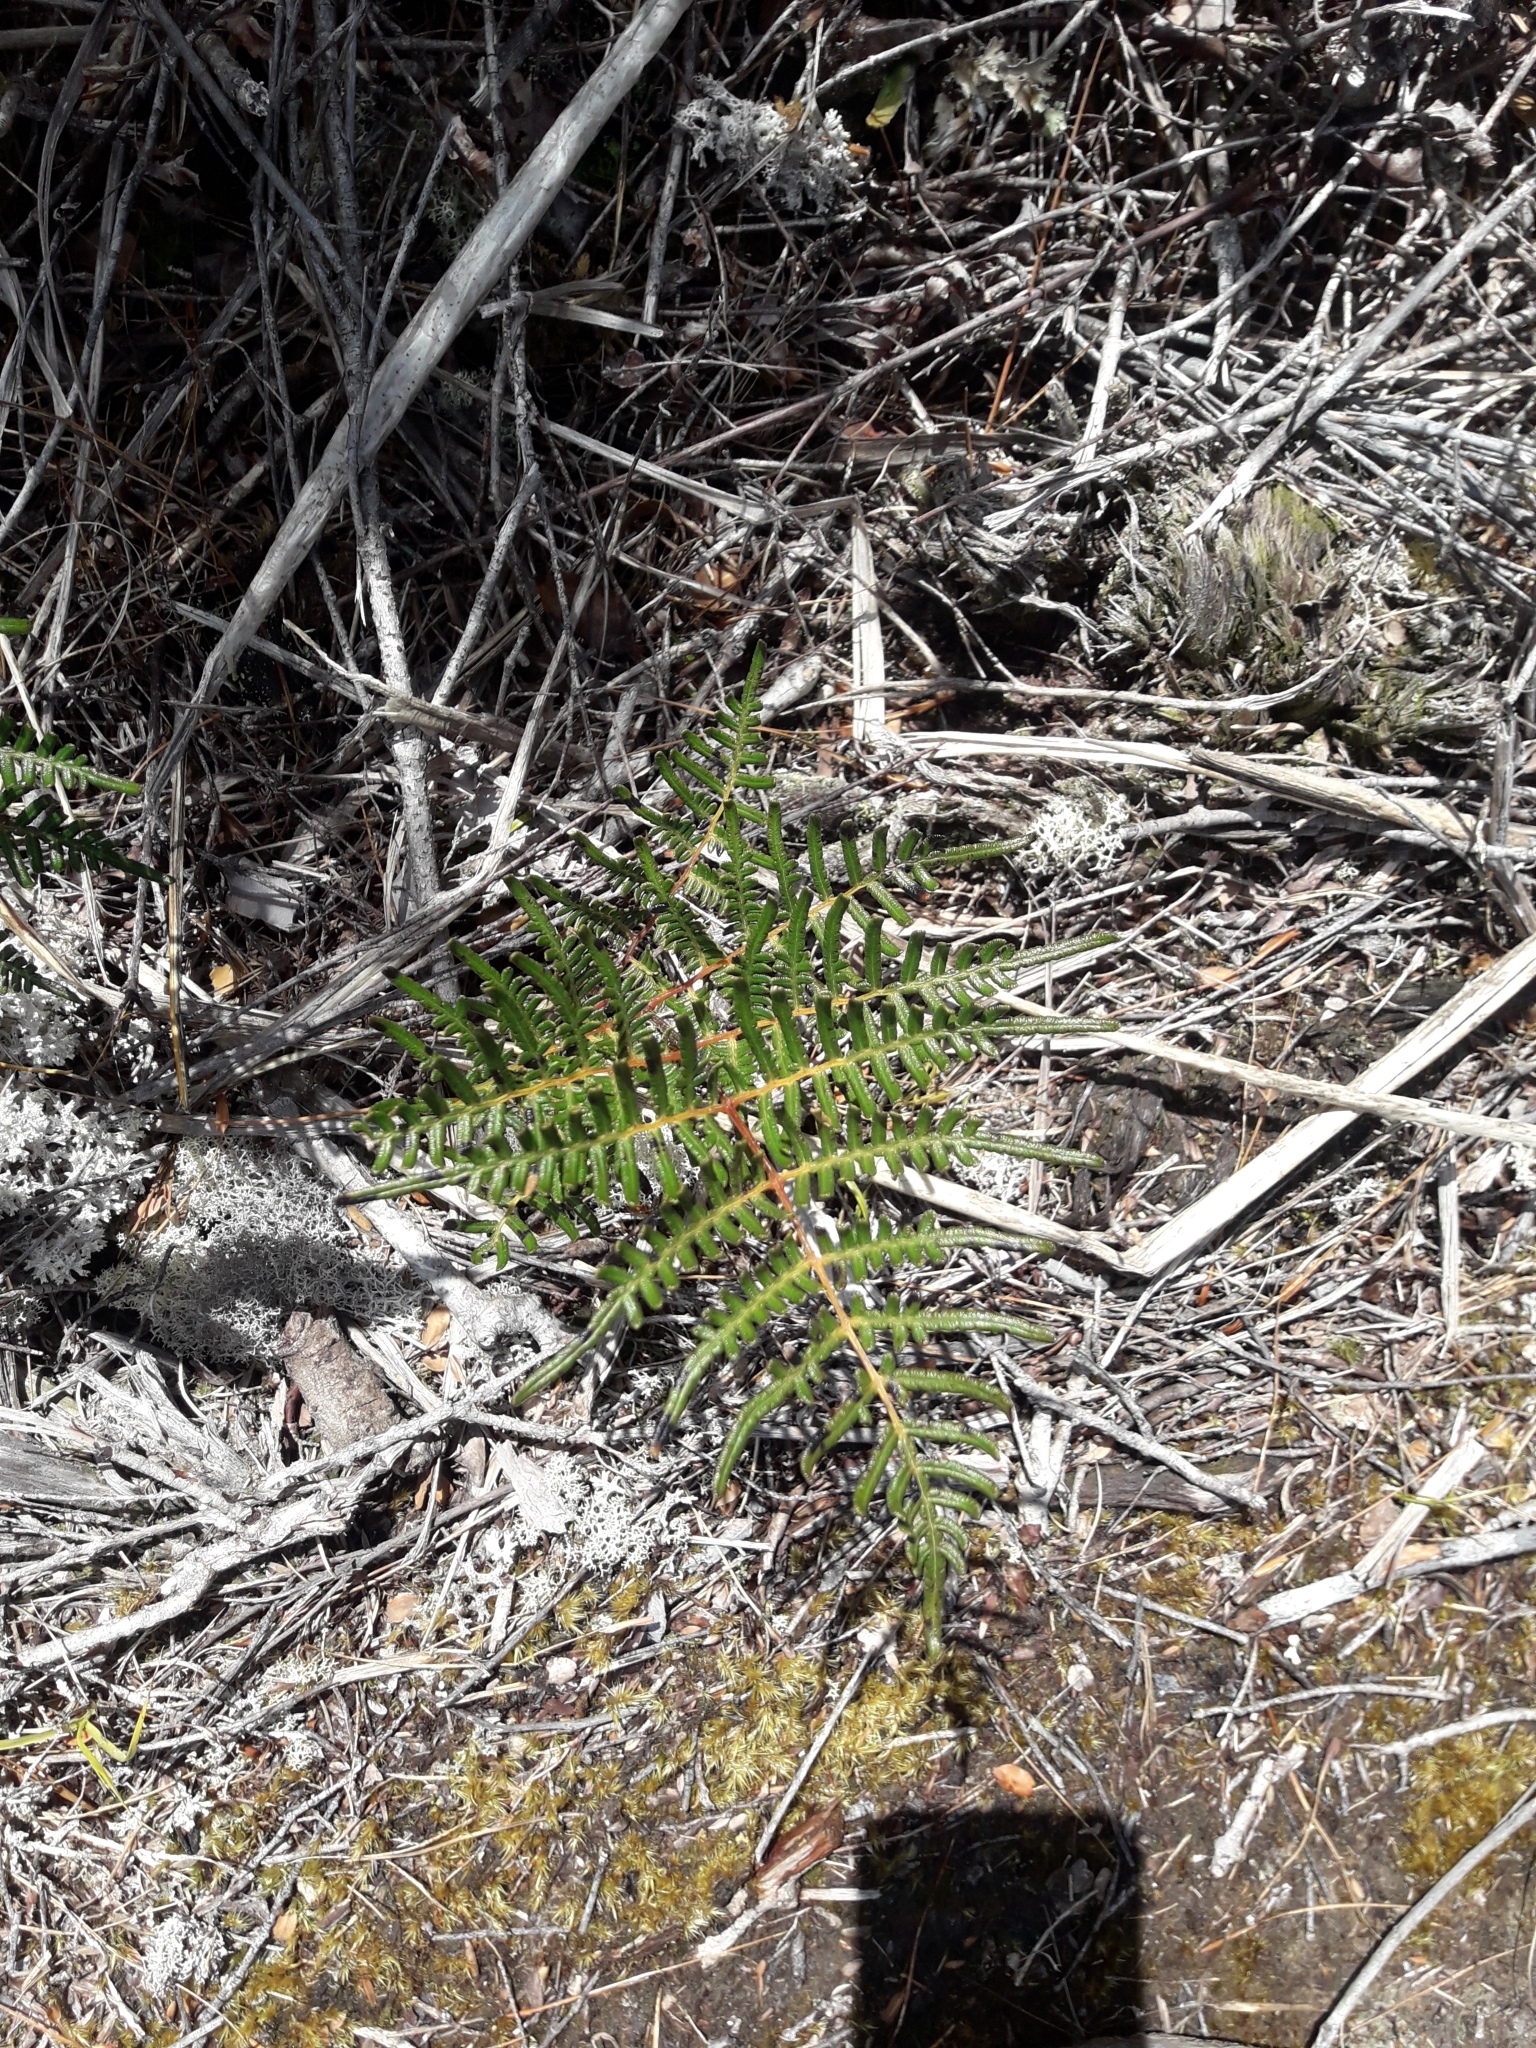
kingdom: Plantae
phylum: Tracheophyta
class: Polypodiopsida
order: Polypodiales
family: Dennstaedtiaceae
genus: Pteridium
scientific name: Pteridium esculentum
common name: Bracken fern
